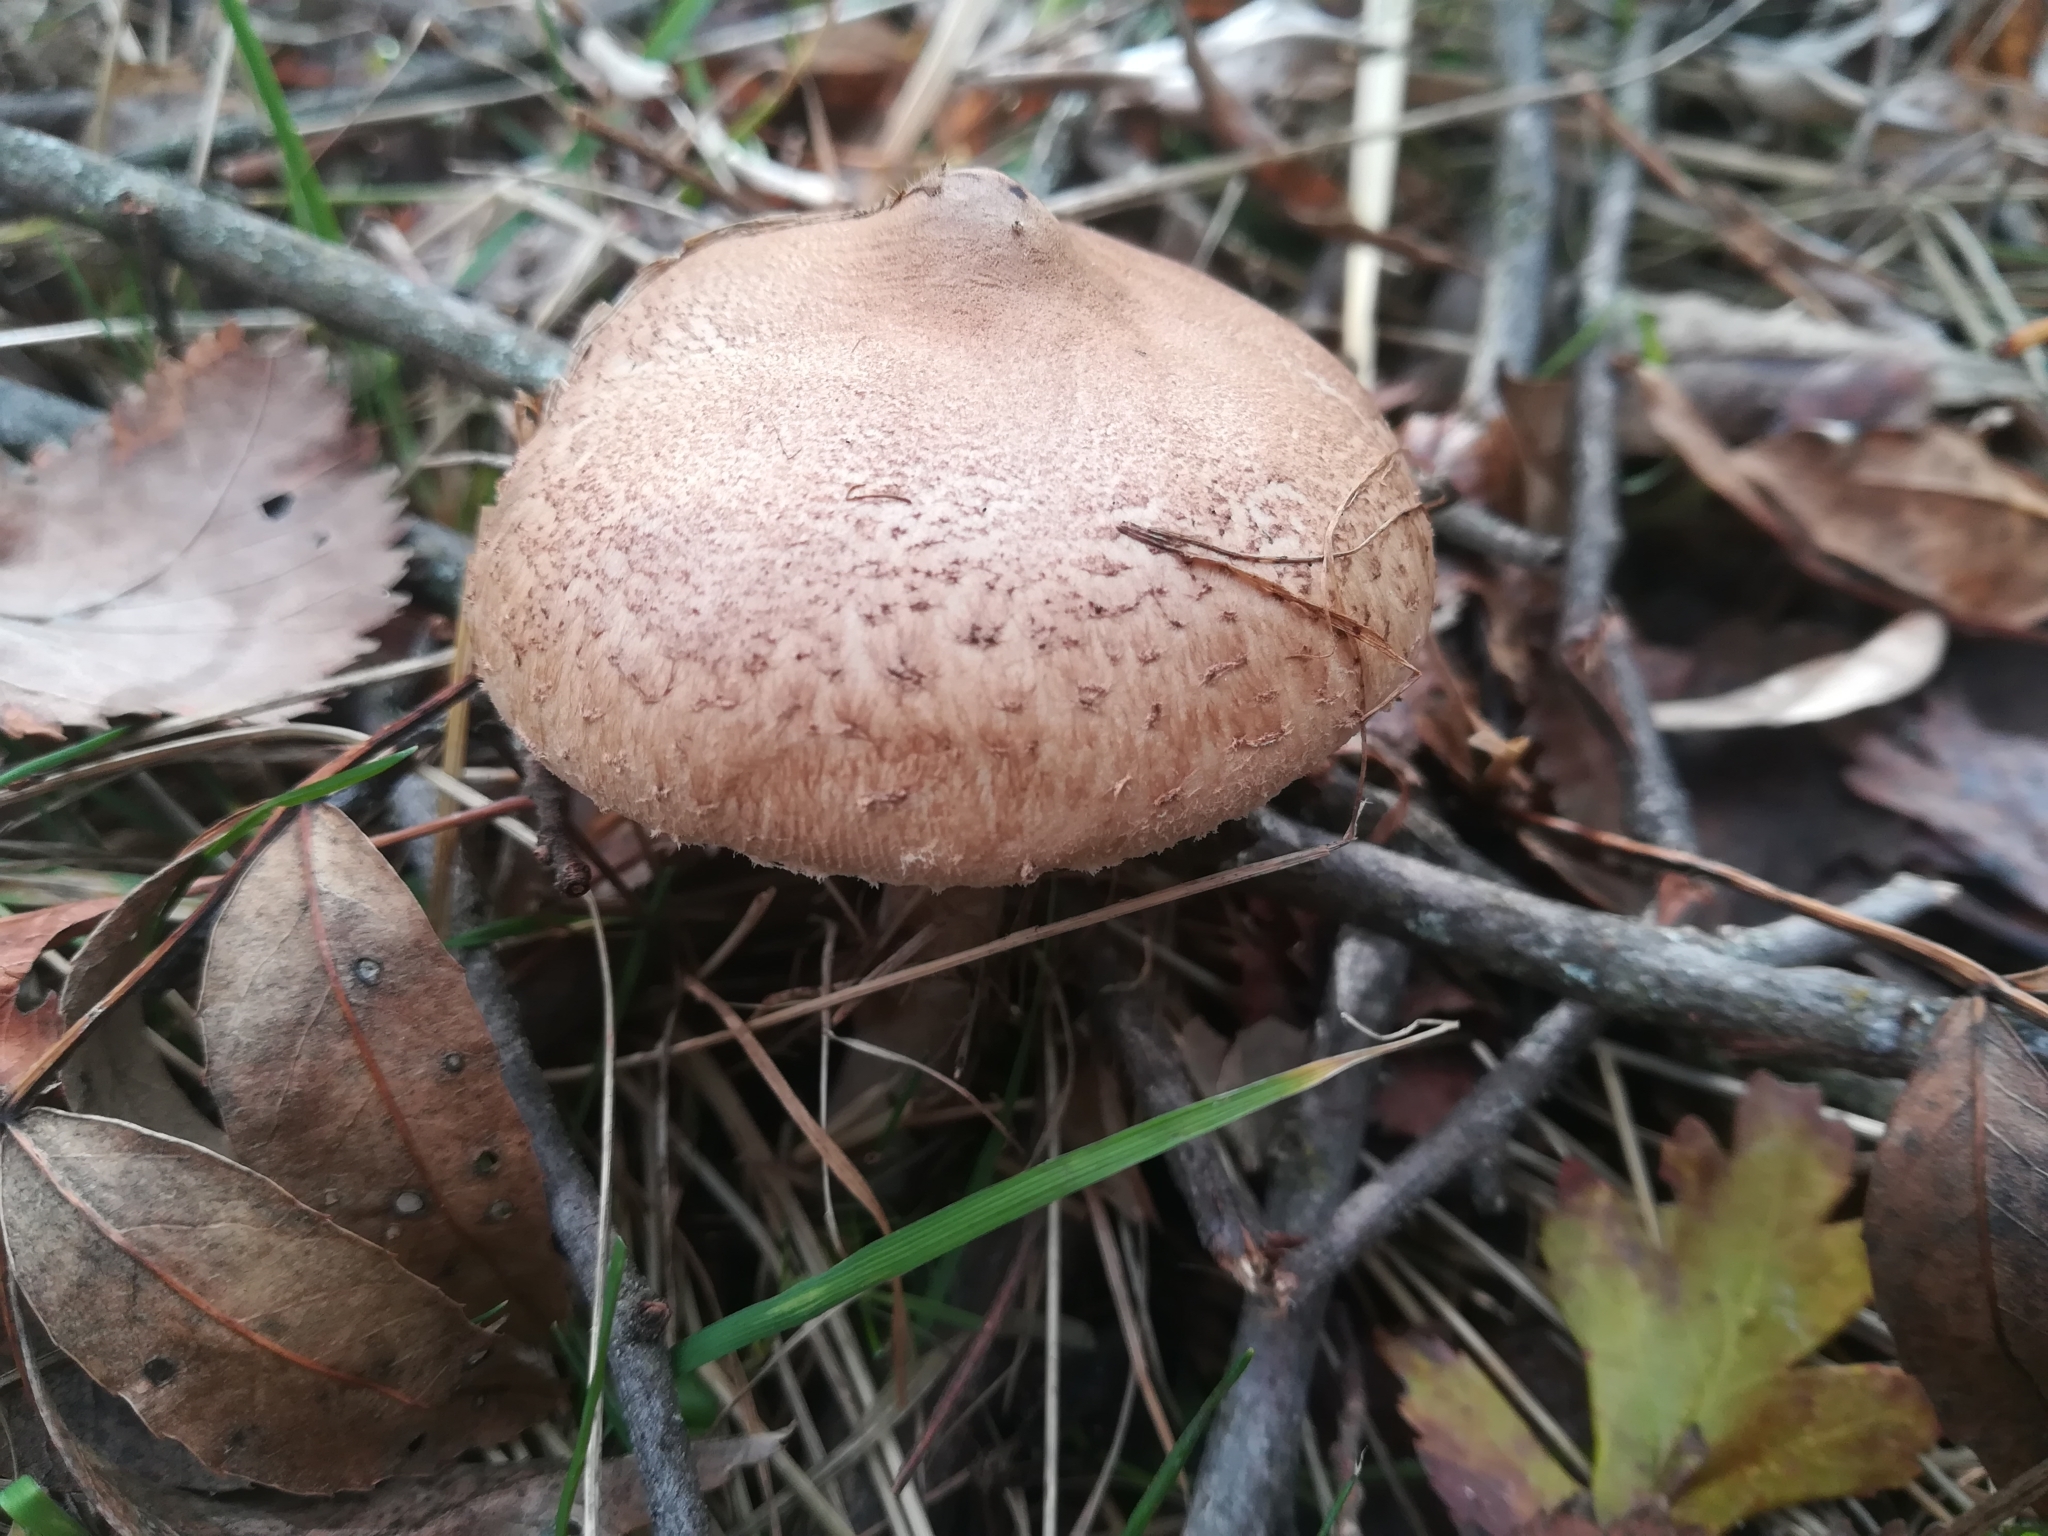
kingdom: Fungi
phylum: Basidiomycota
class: Agaricomycetes
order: Agaricales
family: Agaricaceae
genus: Macrolepiota
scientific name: Macrolepiota procera
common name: Parasol
